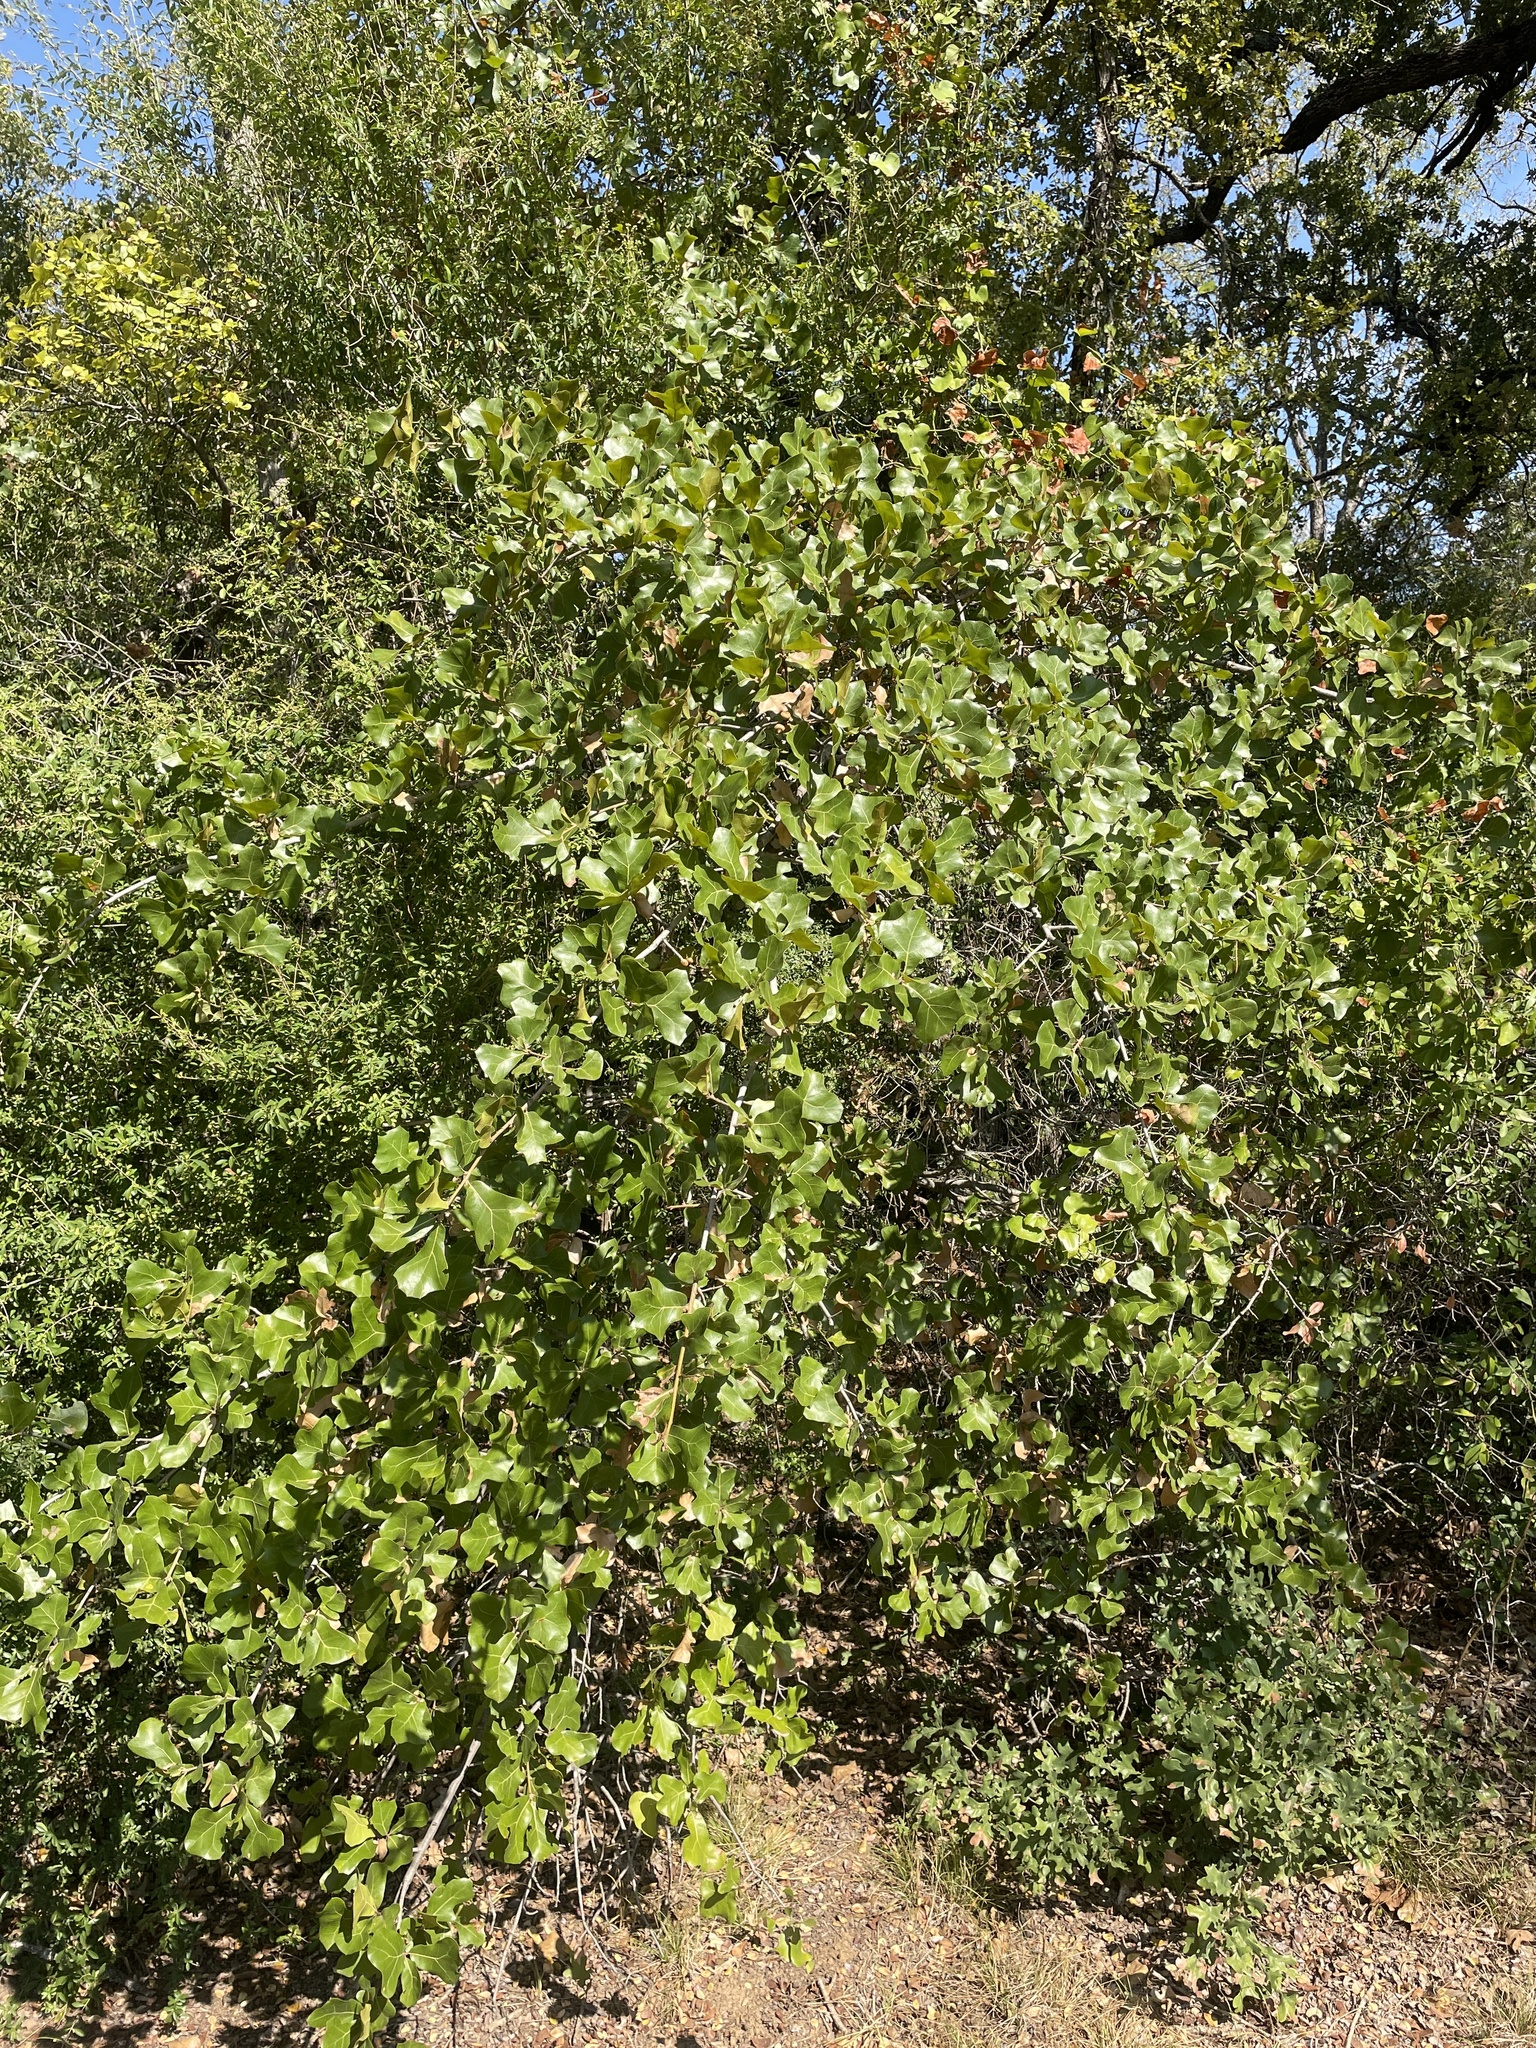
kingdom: Plantae
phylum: Tracheophyta
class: Magnoliopsida
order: Fagales
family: Fagaceae
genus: Quercus
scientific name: Quercus marilandica
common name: Blackjack oak
